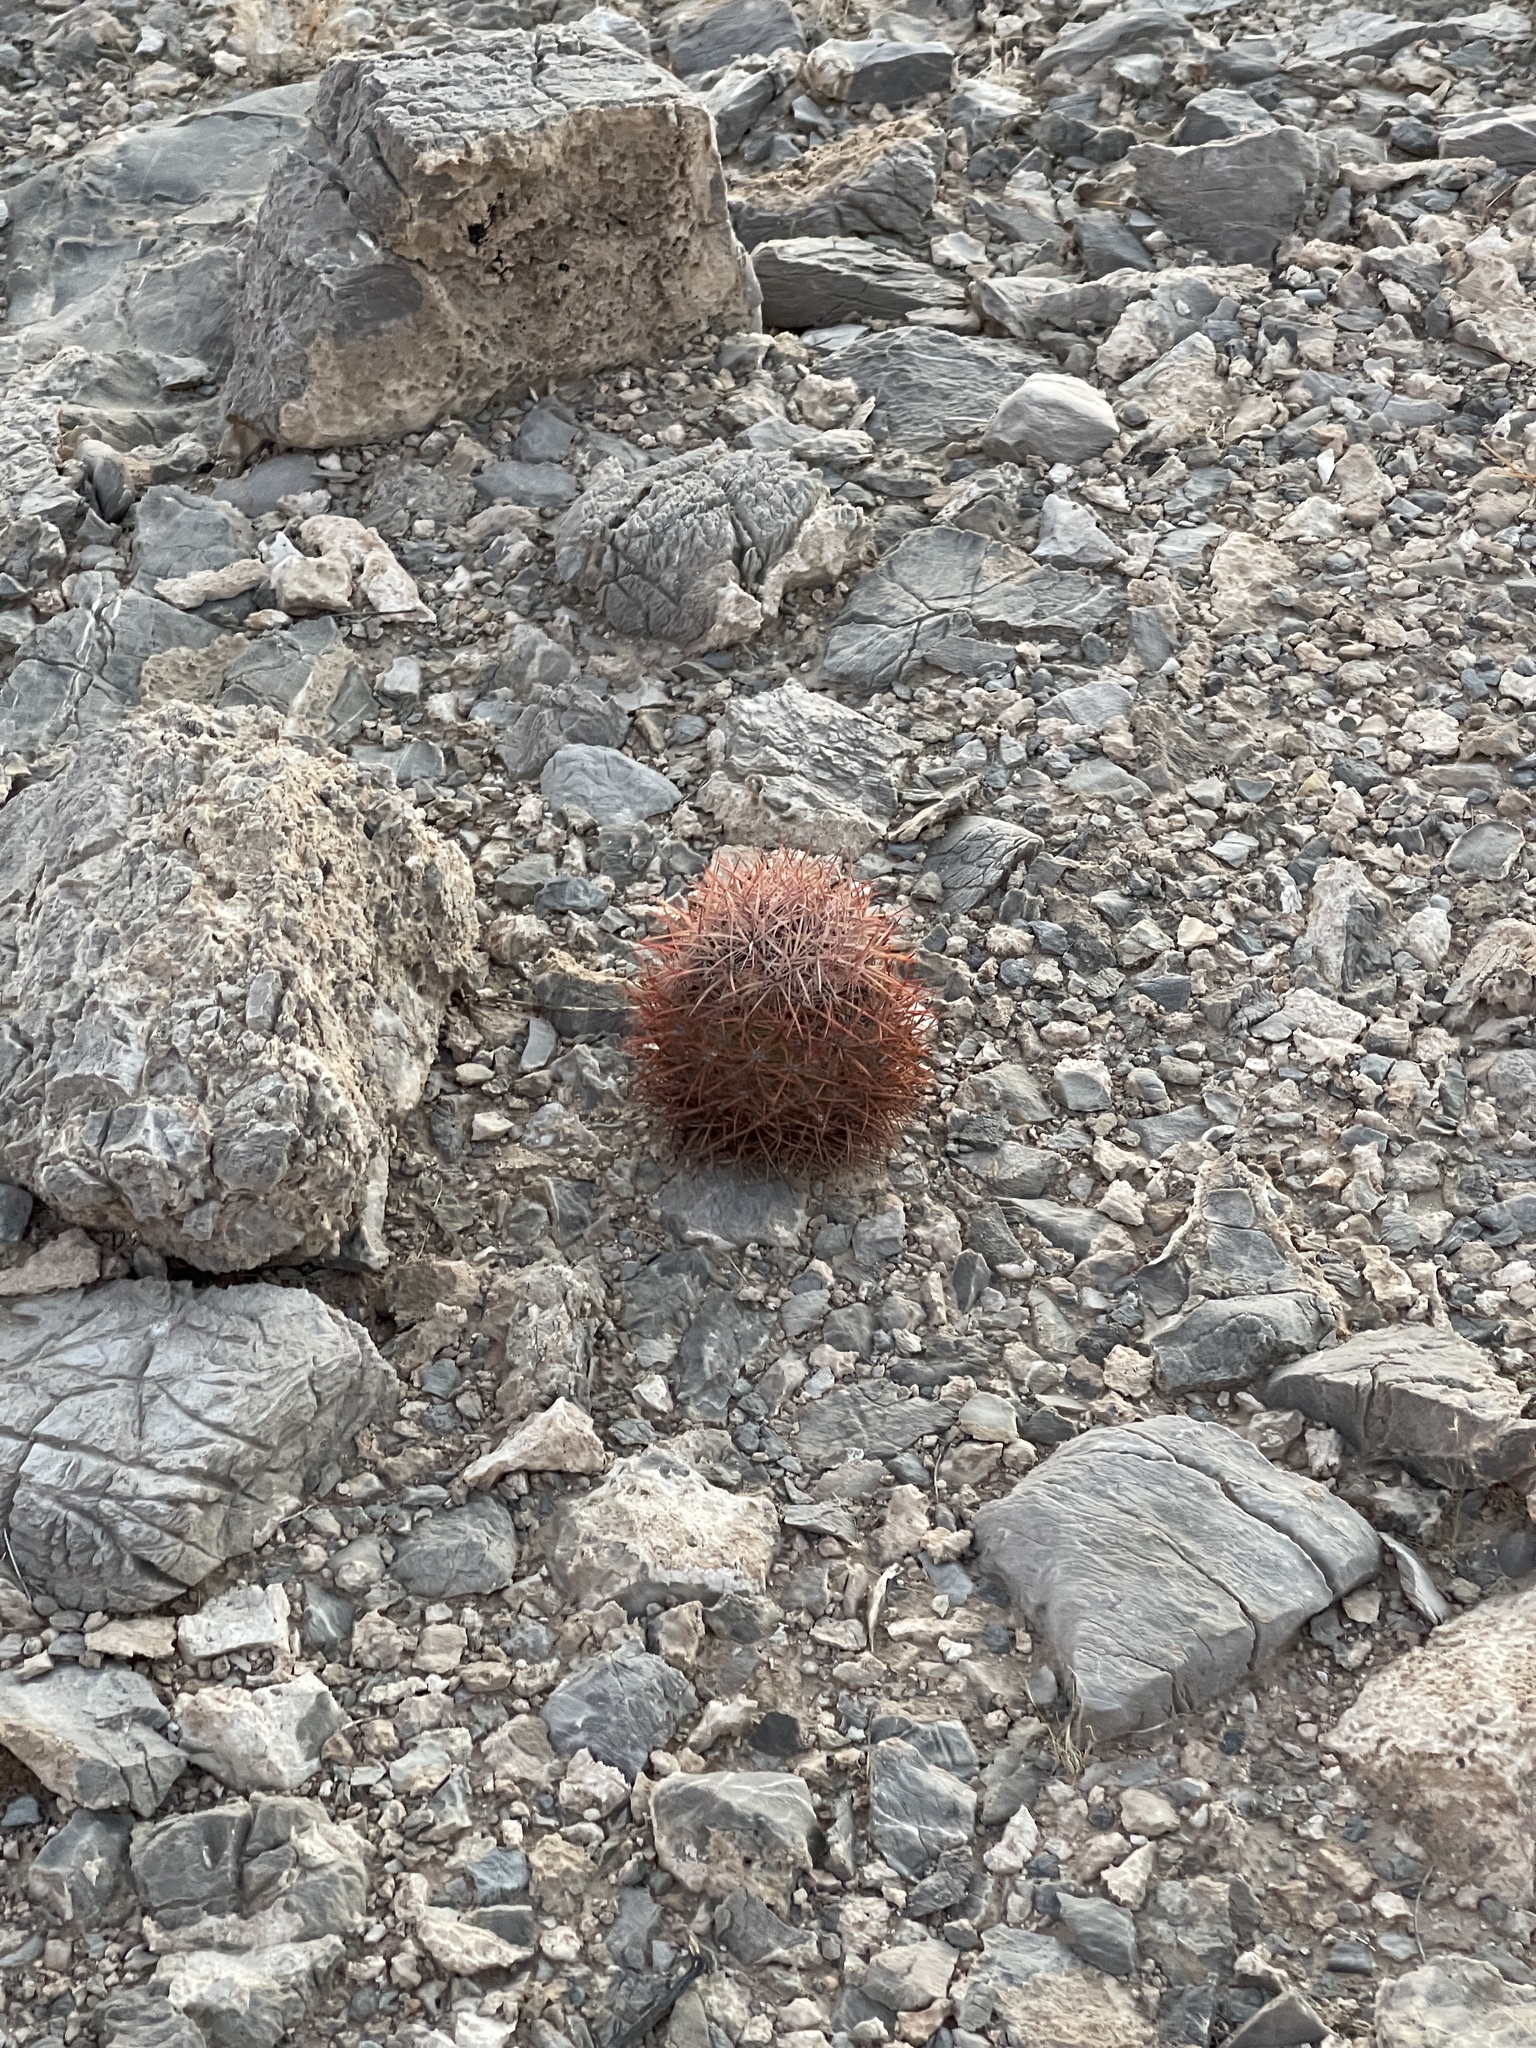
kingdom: Plantae
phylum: Tracheophyta
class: Magnoliopsida
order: Caryophyllales
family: Cactaceae
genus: Sclerocactus
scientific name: Sclerocactus johnsonii
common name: Eight-spine fishhook cactus
